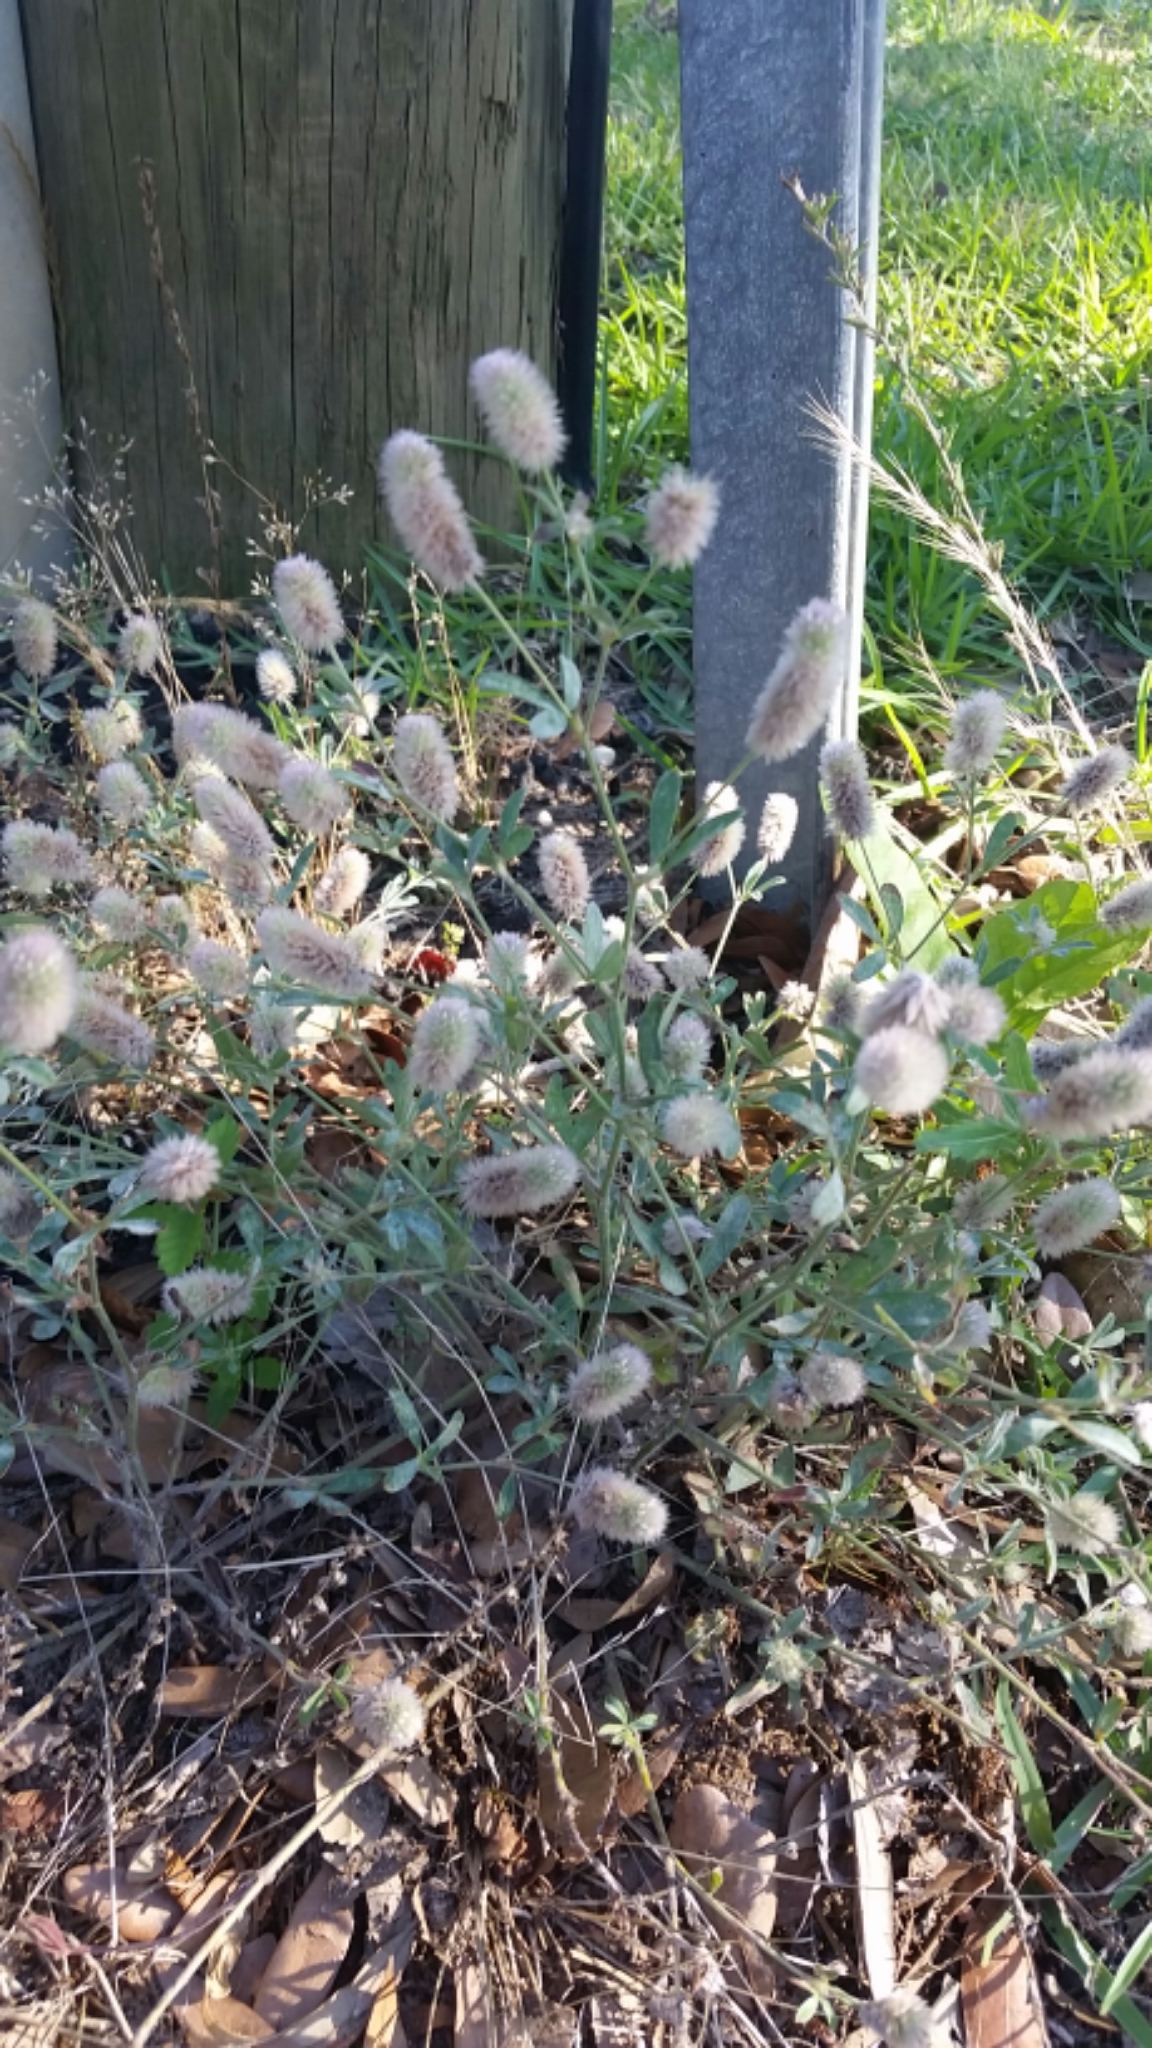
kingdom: Plantae
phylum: Tracheophyta
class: Magnoliopsida
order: Fabales
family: Fabaceae
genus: Trifolium
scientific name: Trifolium arvense
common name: Hare's-foot clover
